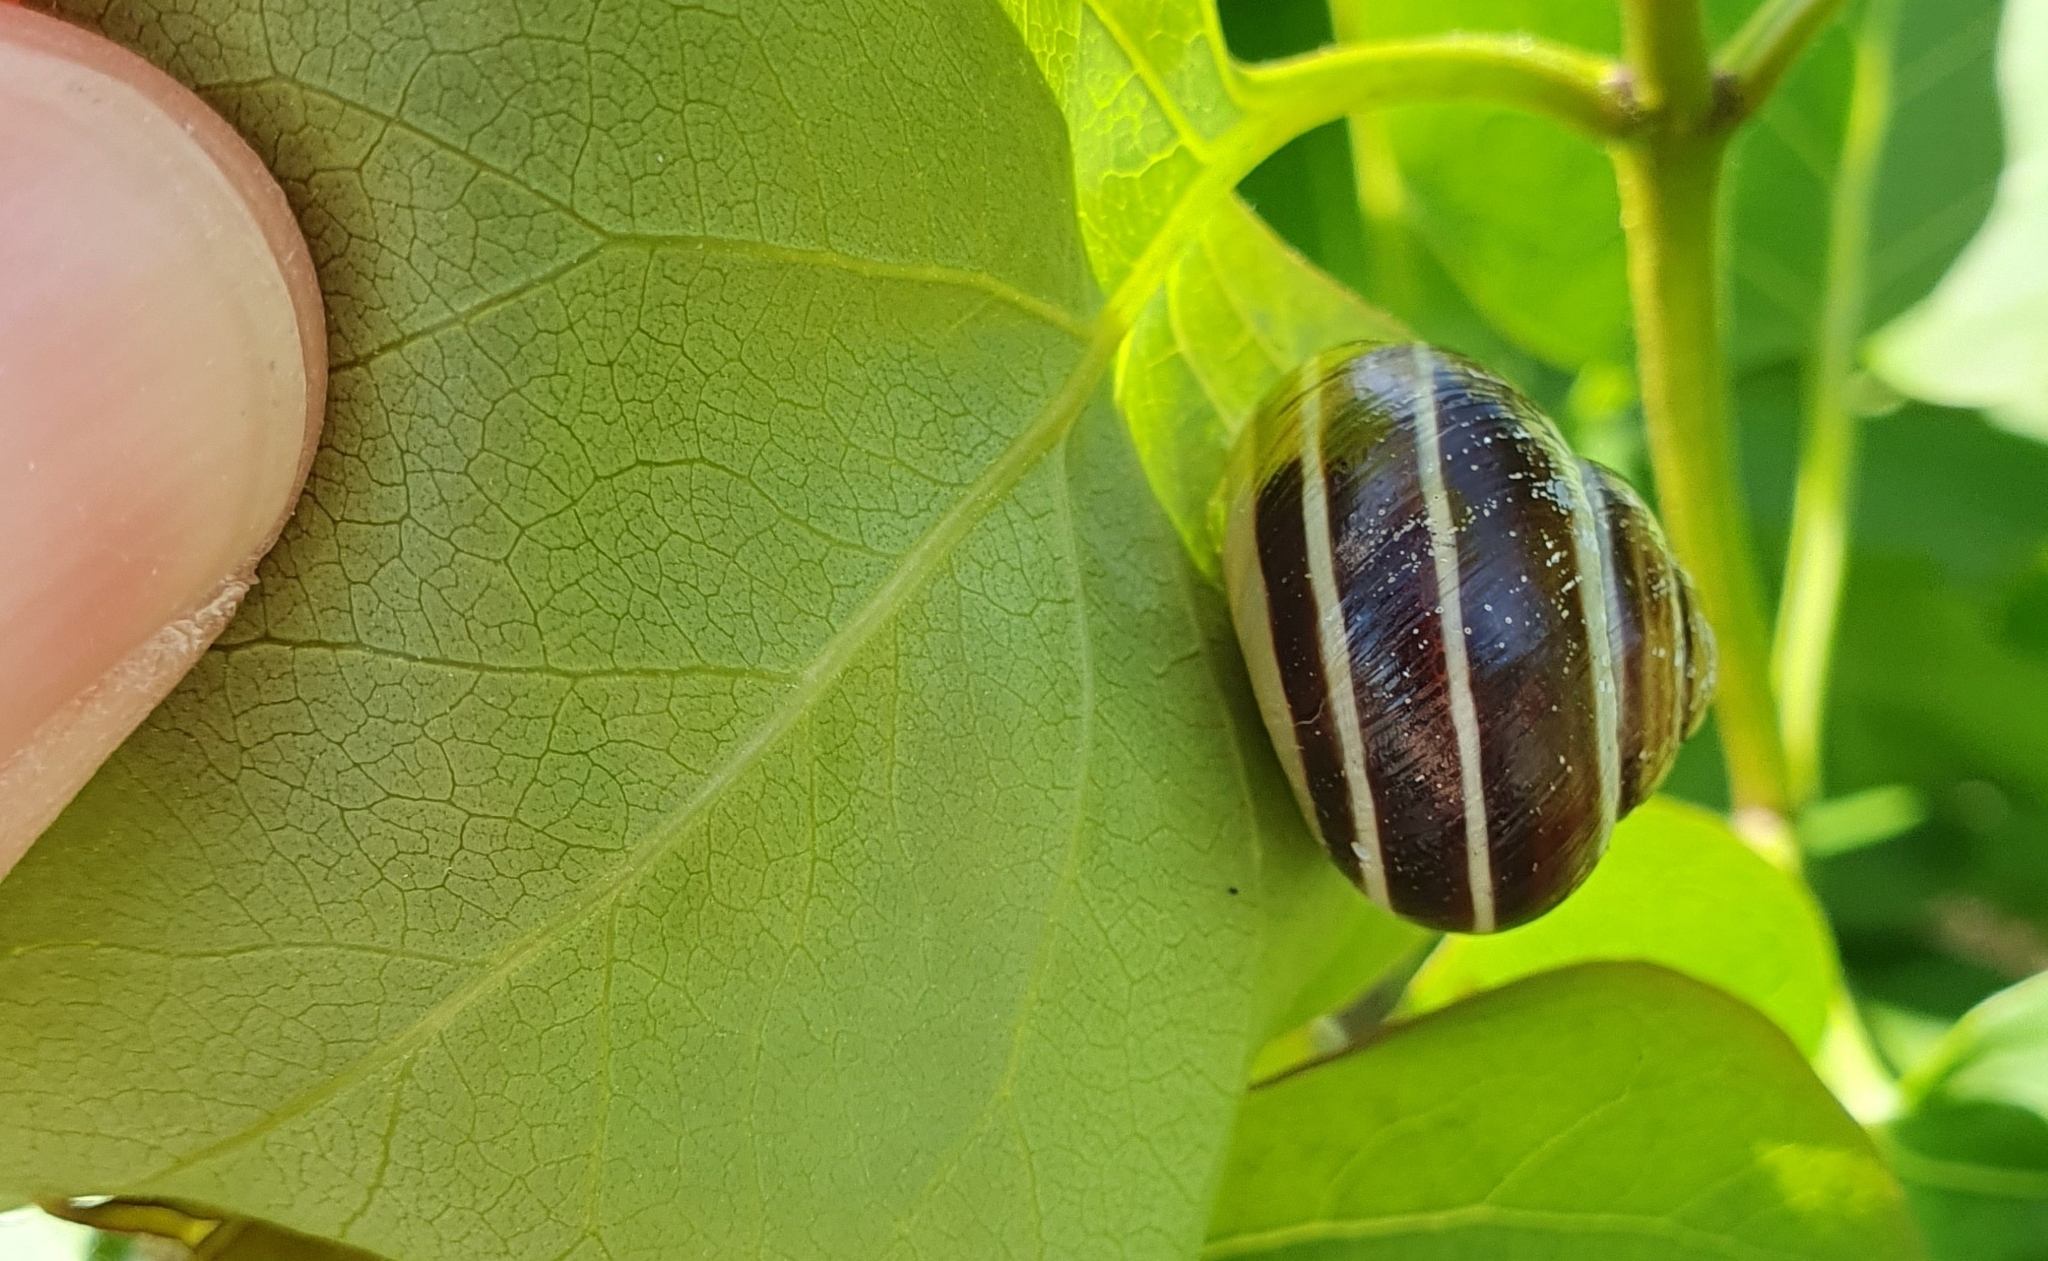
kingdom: Animalia
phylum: Mollusca
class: Gastropoda
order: Stylommatophora
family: Helicidae
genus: Cepaea
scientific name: Cepaea hortensis
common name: White-lip gardensnail
